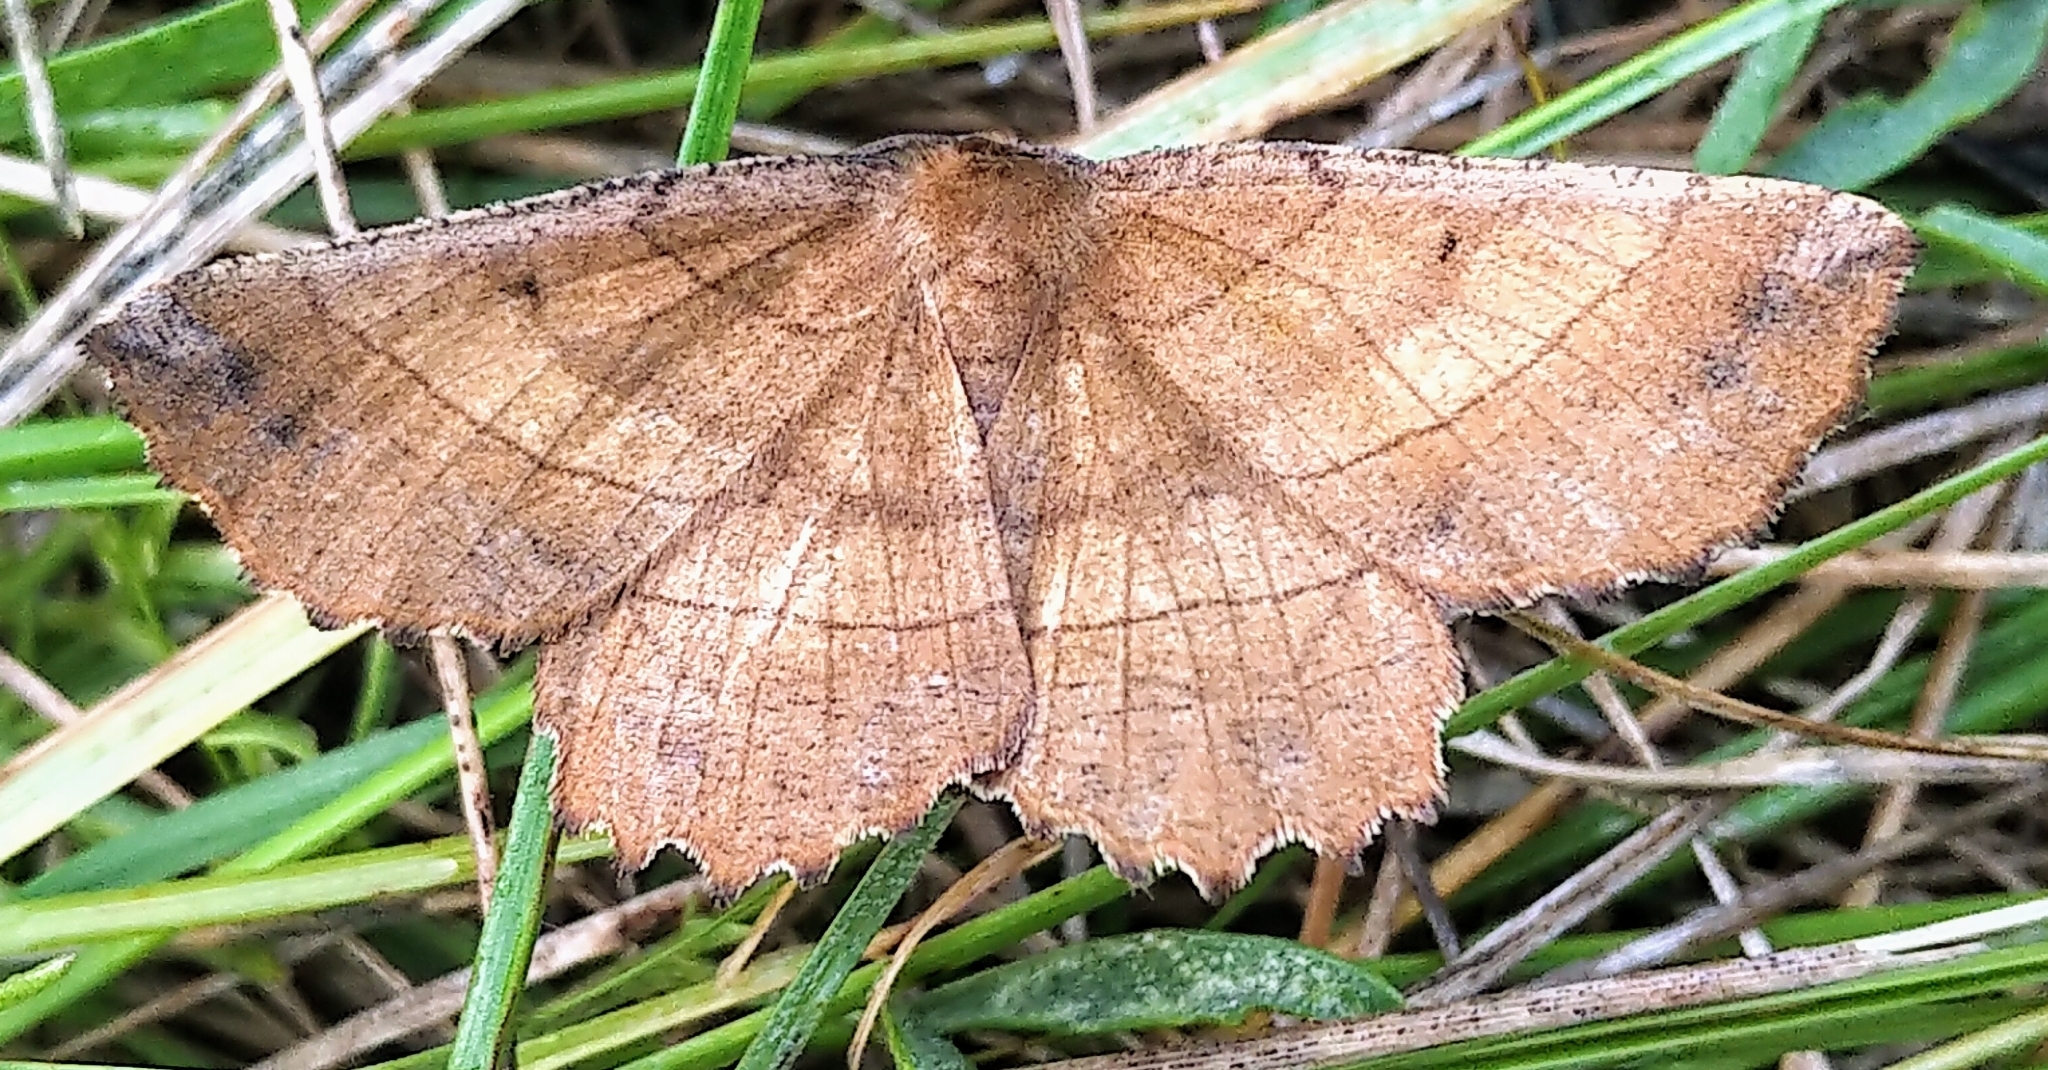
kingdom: Animalia
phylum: Arthropoda
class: Insecta
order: Lepidoptera
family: Geometridae
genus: Euchlaena
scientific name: Euchlaena johnsonaria
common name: Johnson's euchlaena
